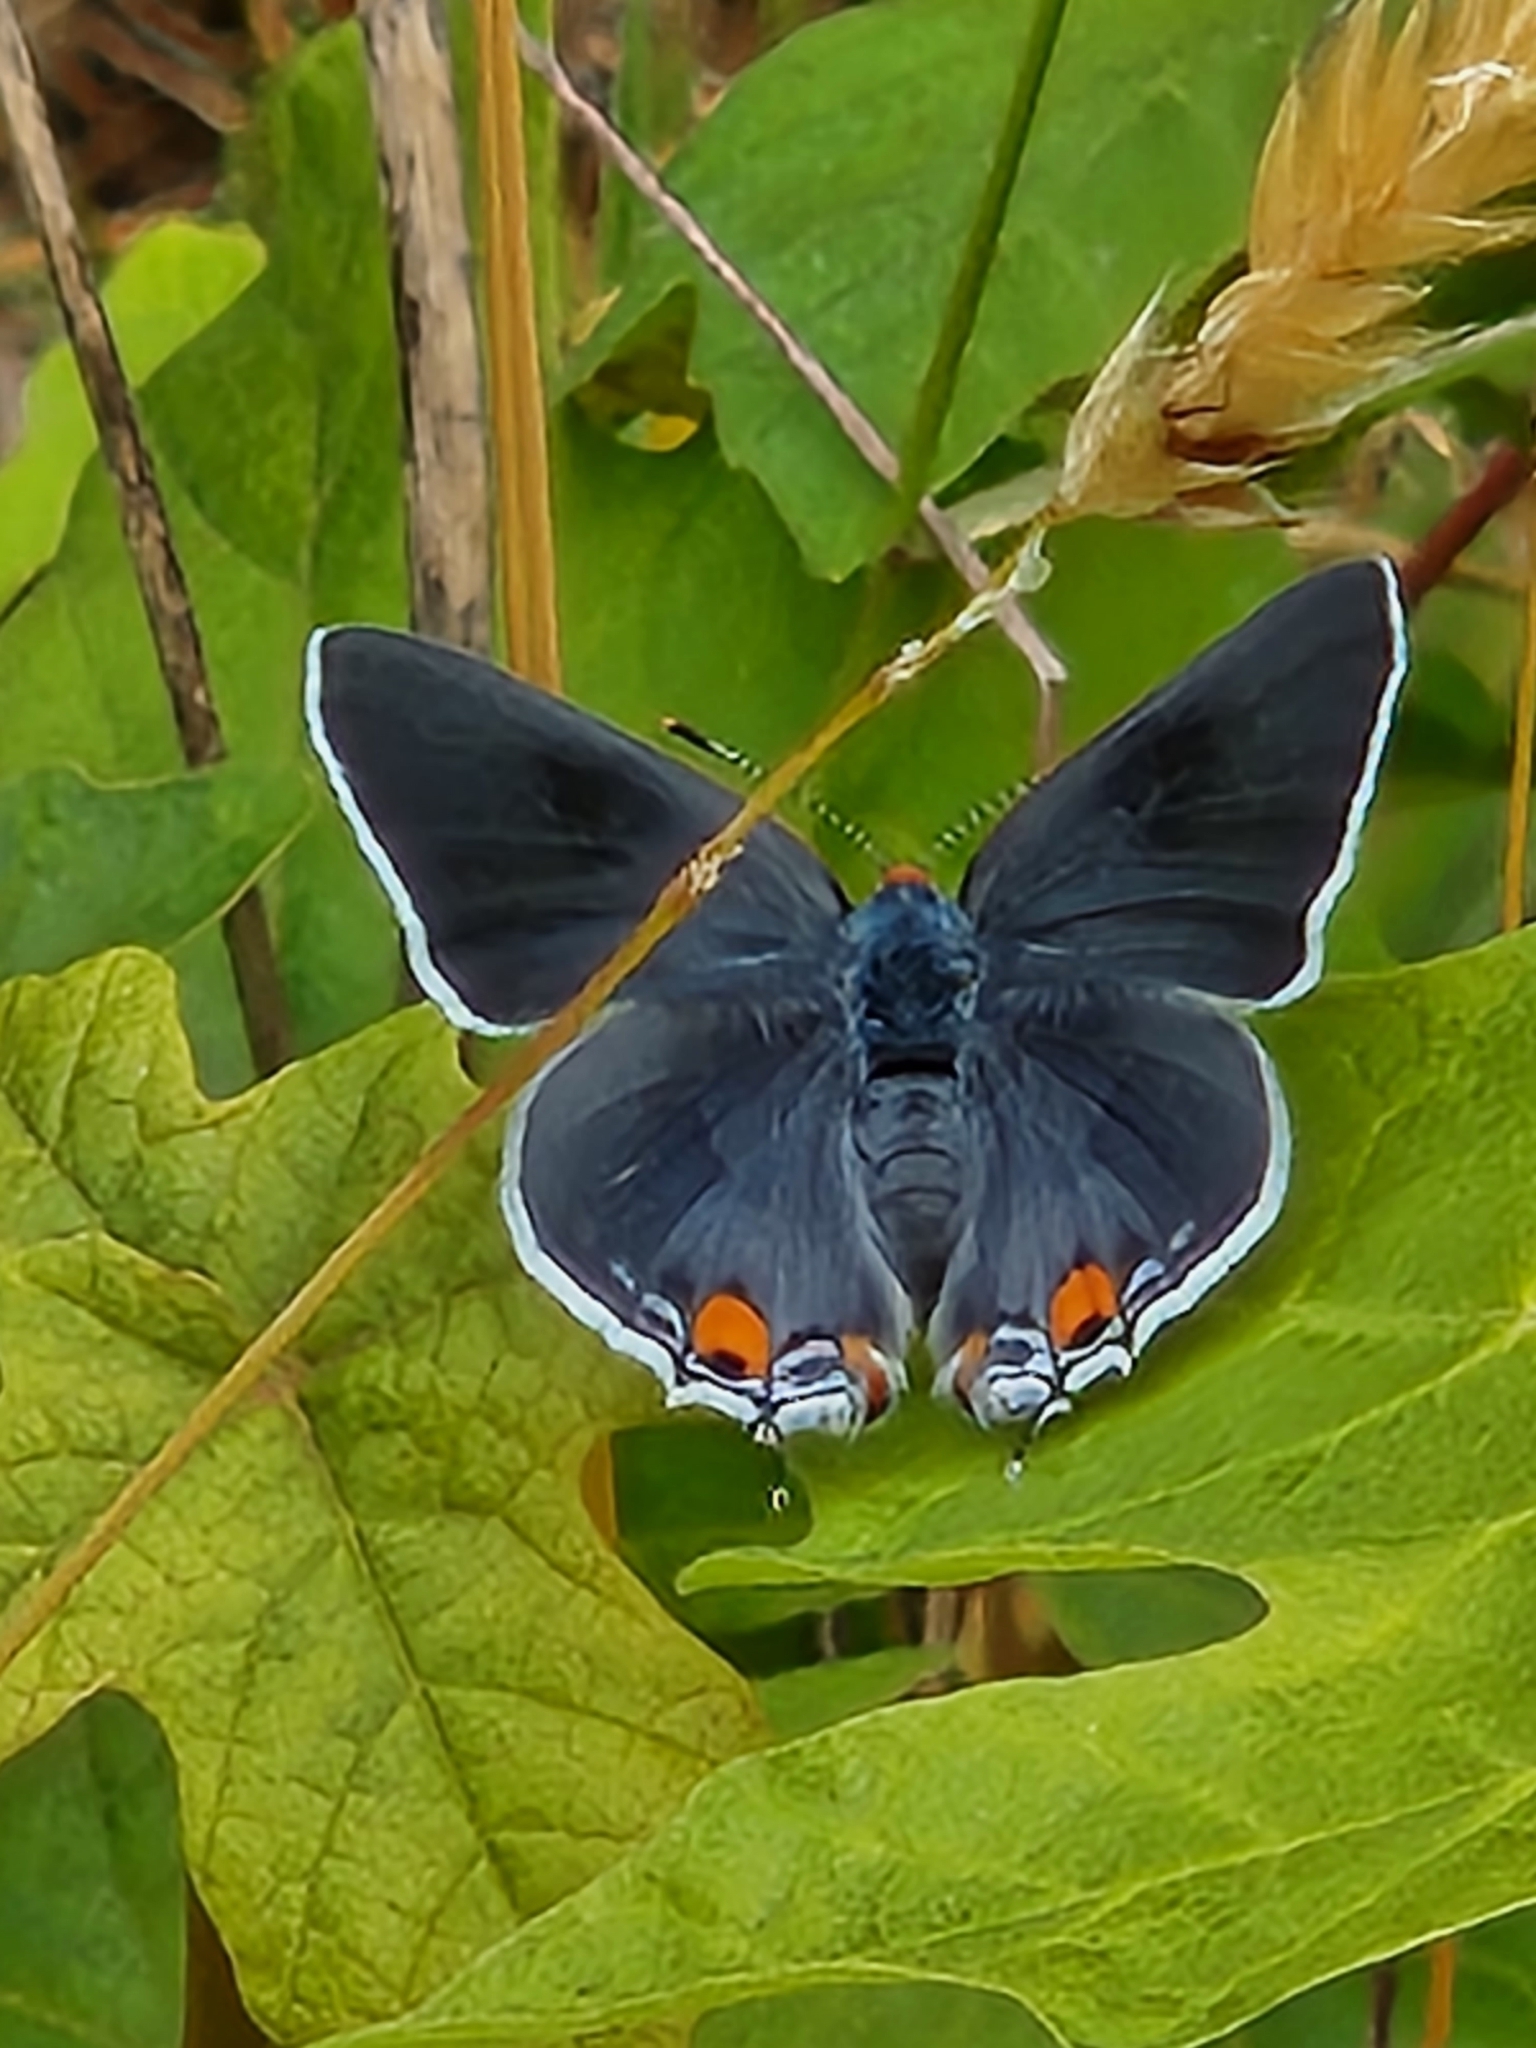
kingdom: Animalia
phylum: Arthropoda
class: Insecta
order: Lepidoptera
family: Lycaenidae
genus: Strymon
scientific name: Strymon melinus
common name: Gray hairstreak
